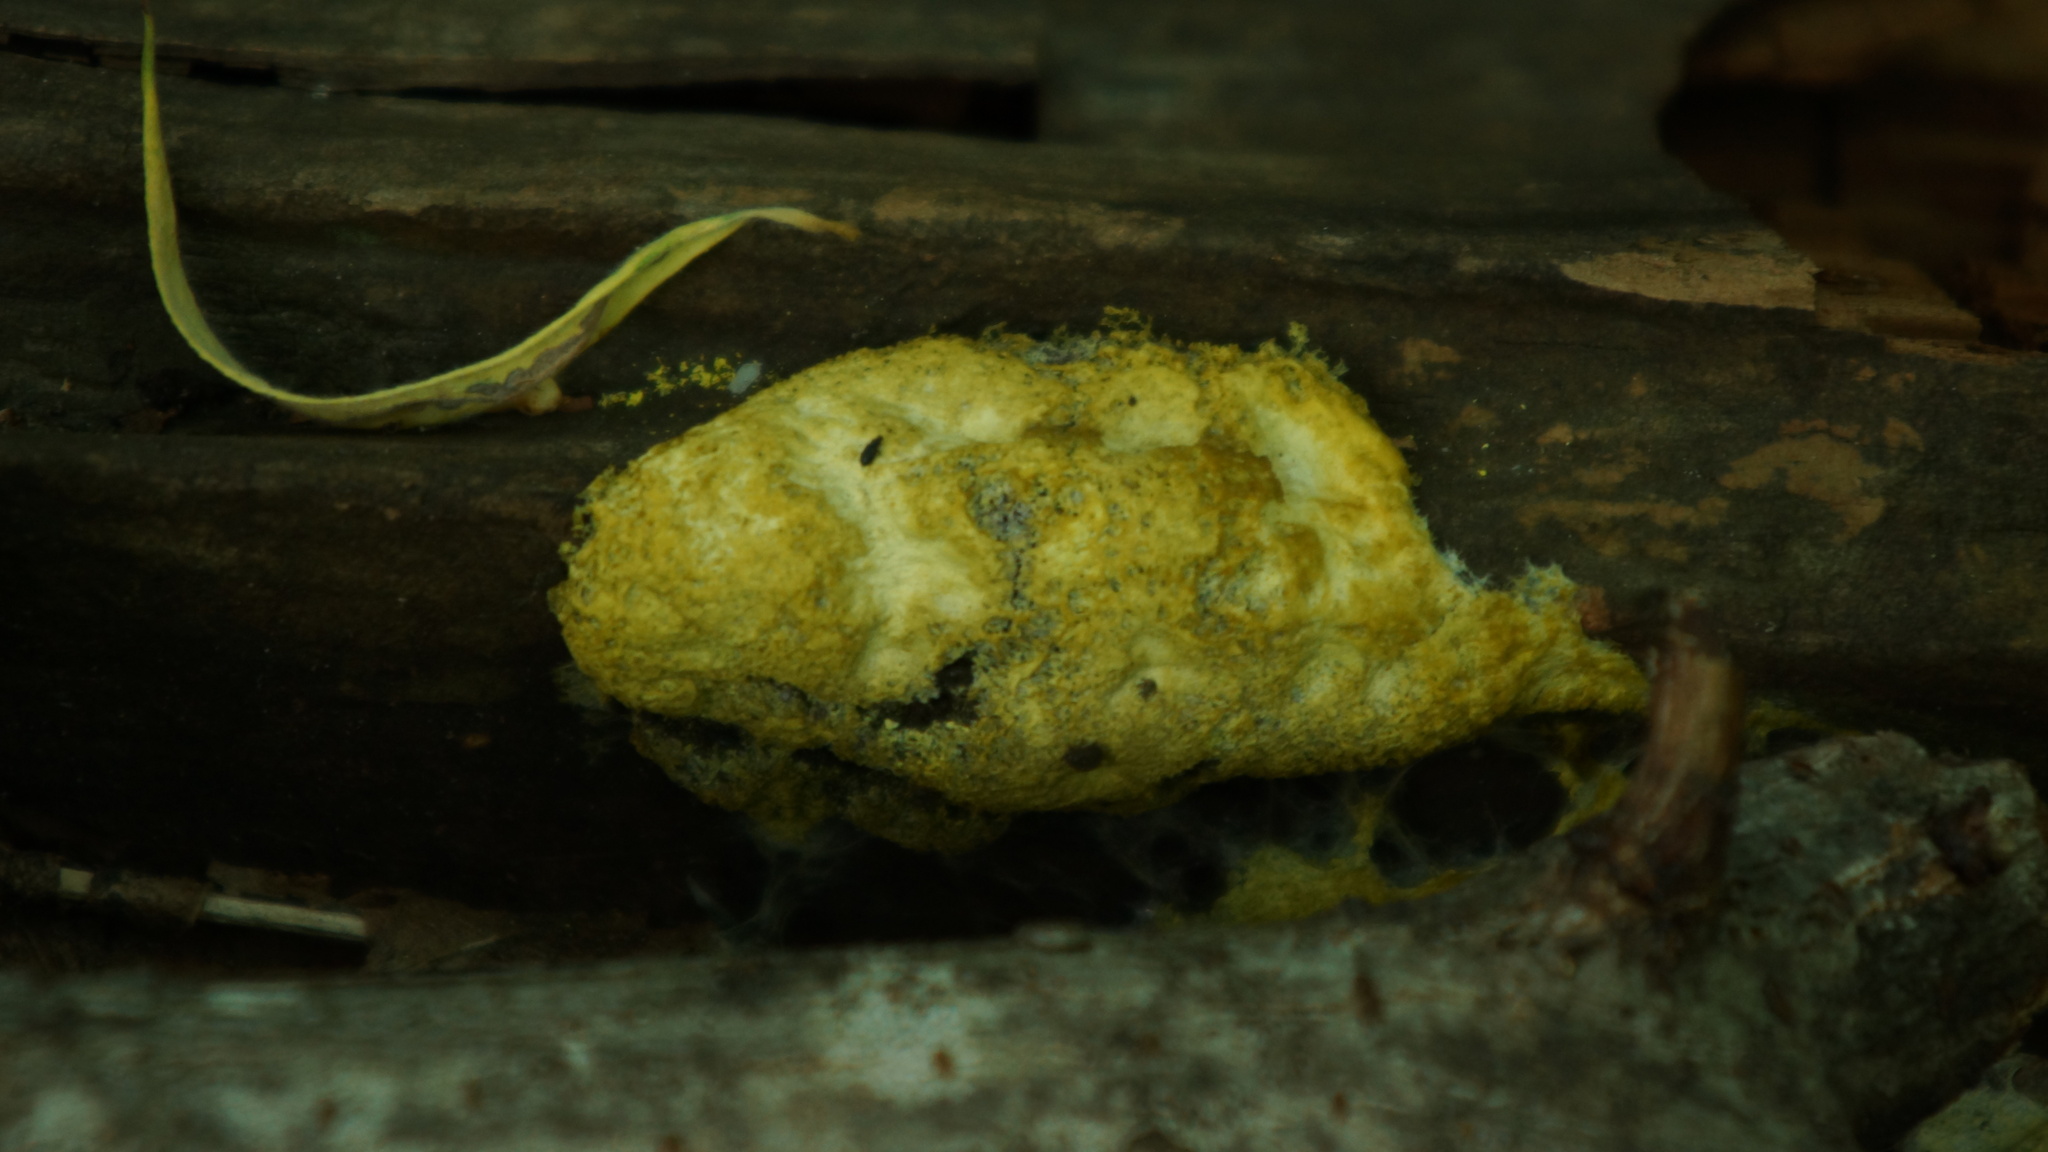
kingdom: Protozoa
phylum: Mycetozoa
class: Myxomycetes
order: Physarales
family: Physaraceae
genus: Fuligo
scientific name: Fuligo septica
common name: Dog vomit slime mold
